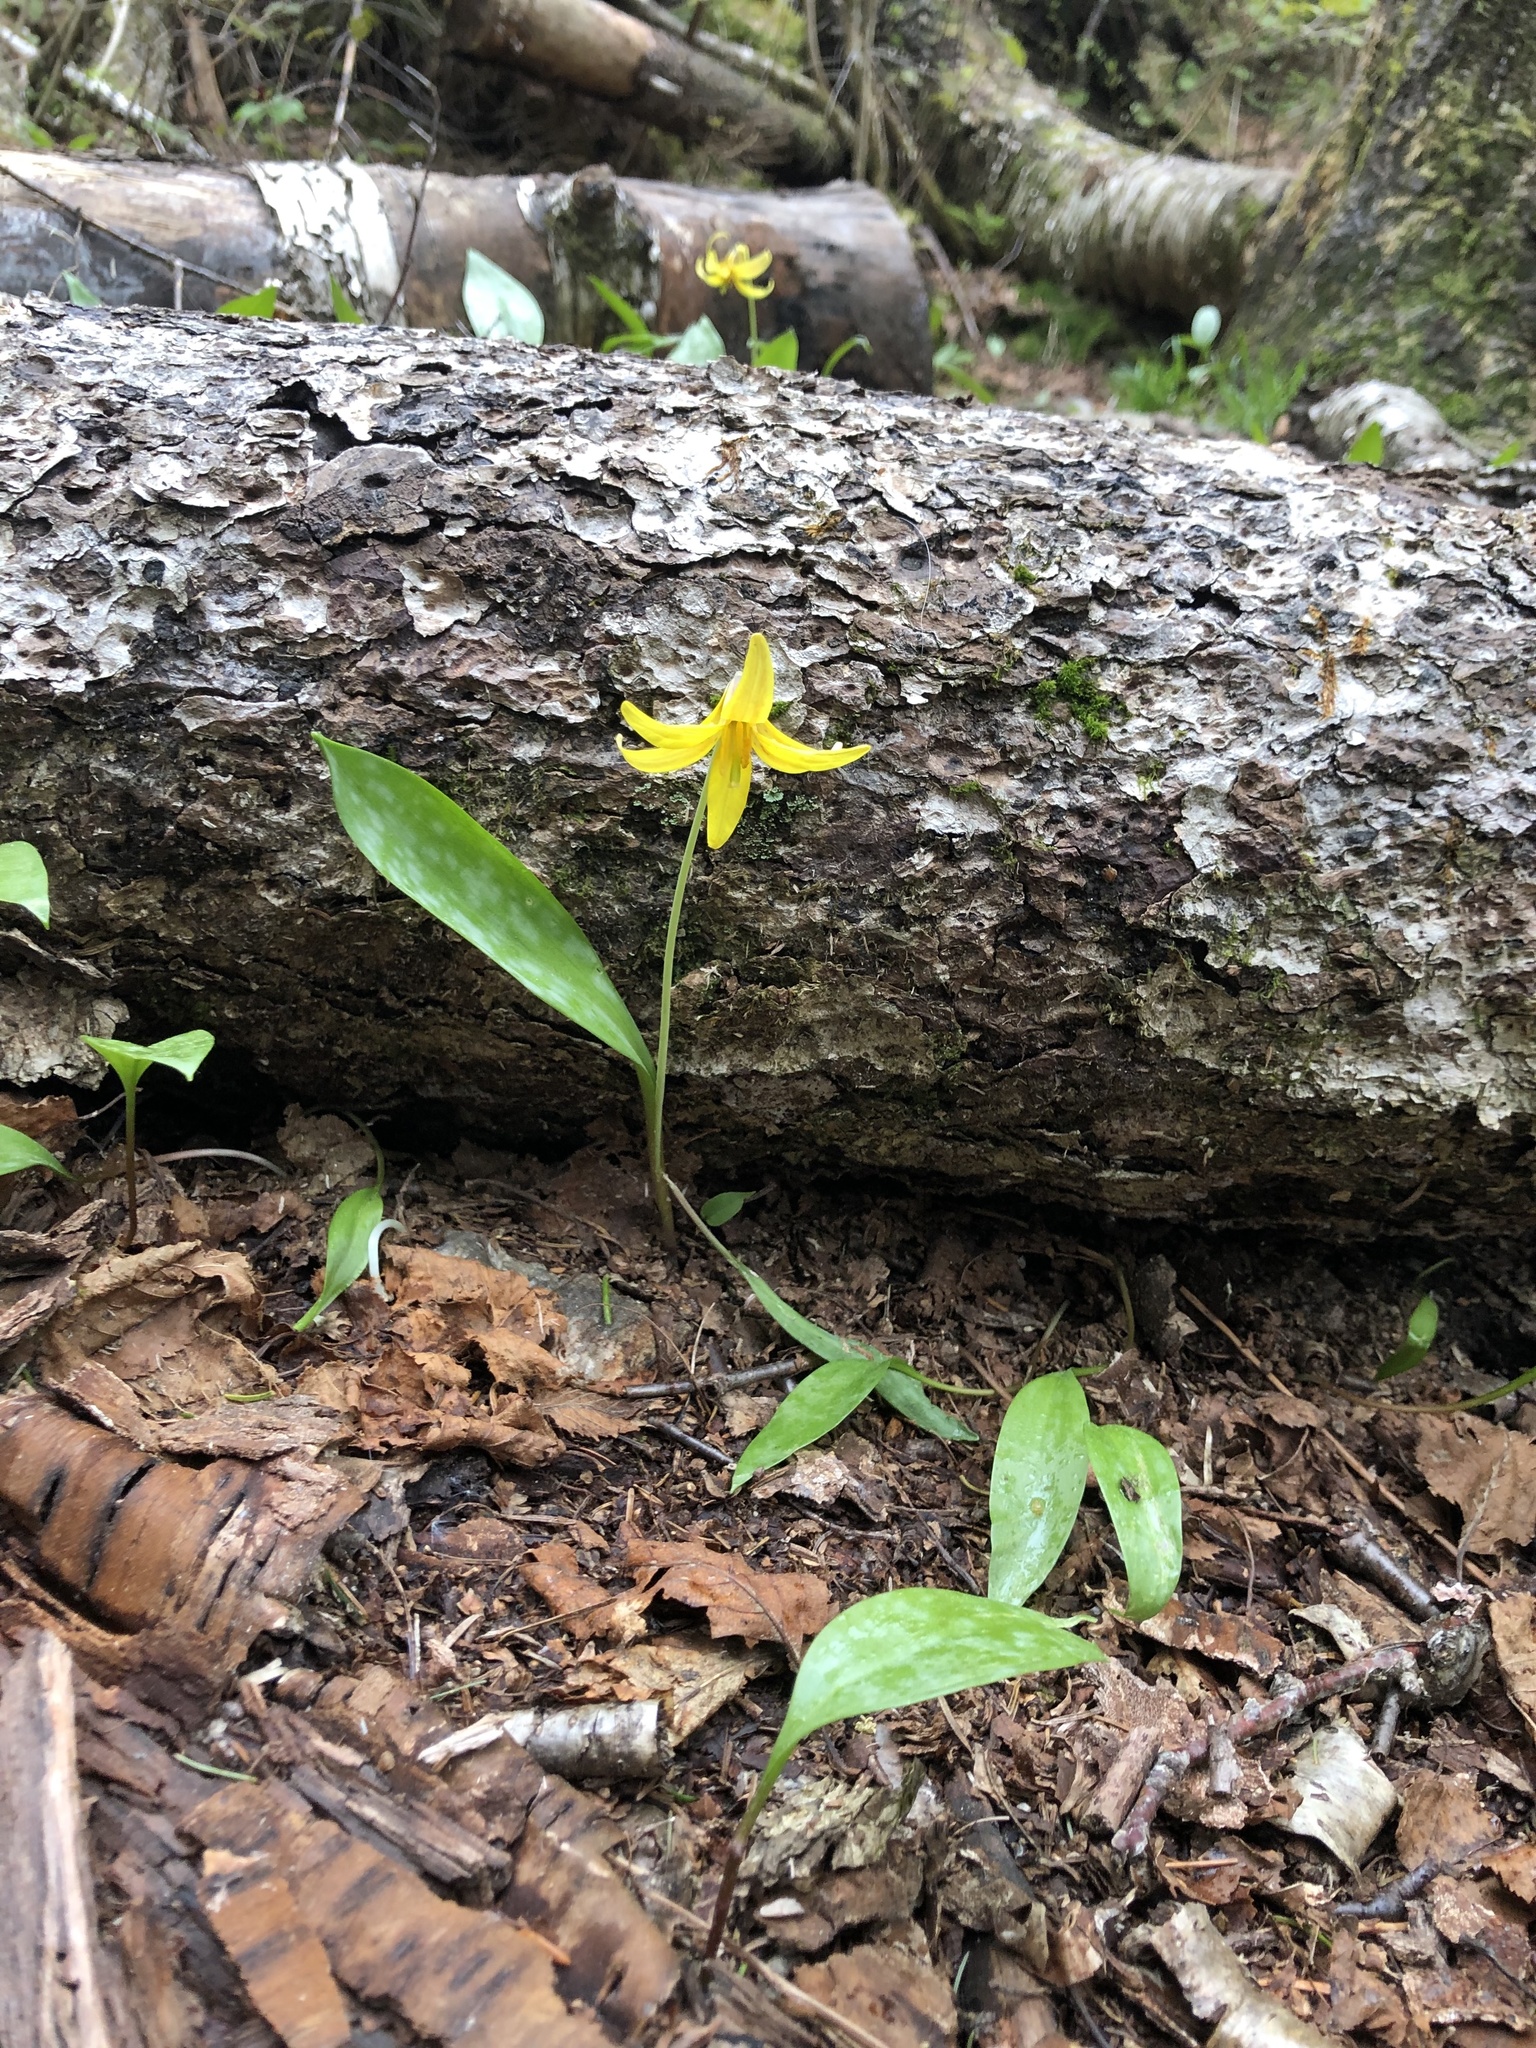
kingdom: Plantae
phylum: Tracheophyta
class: Liliopsida
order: Liliales
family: Liliaceae
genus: Erythronium
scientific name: Erythronium americanum
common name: Yellow adder's-tongue
